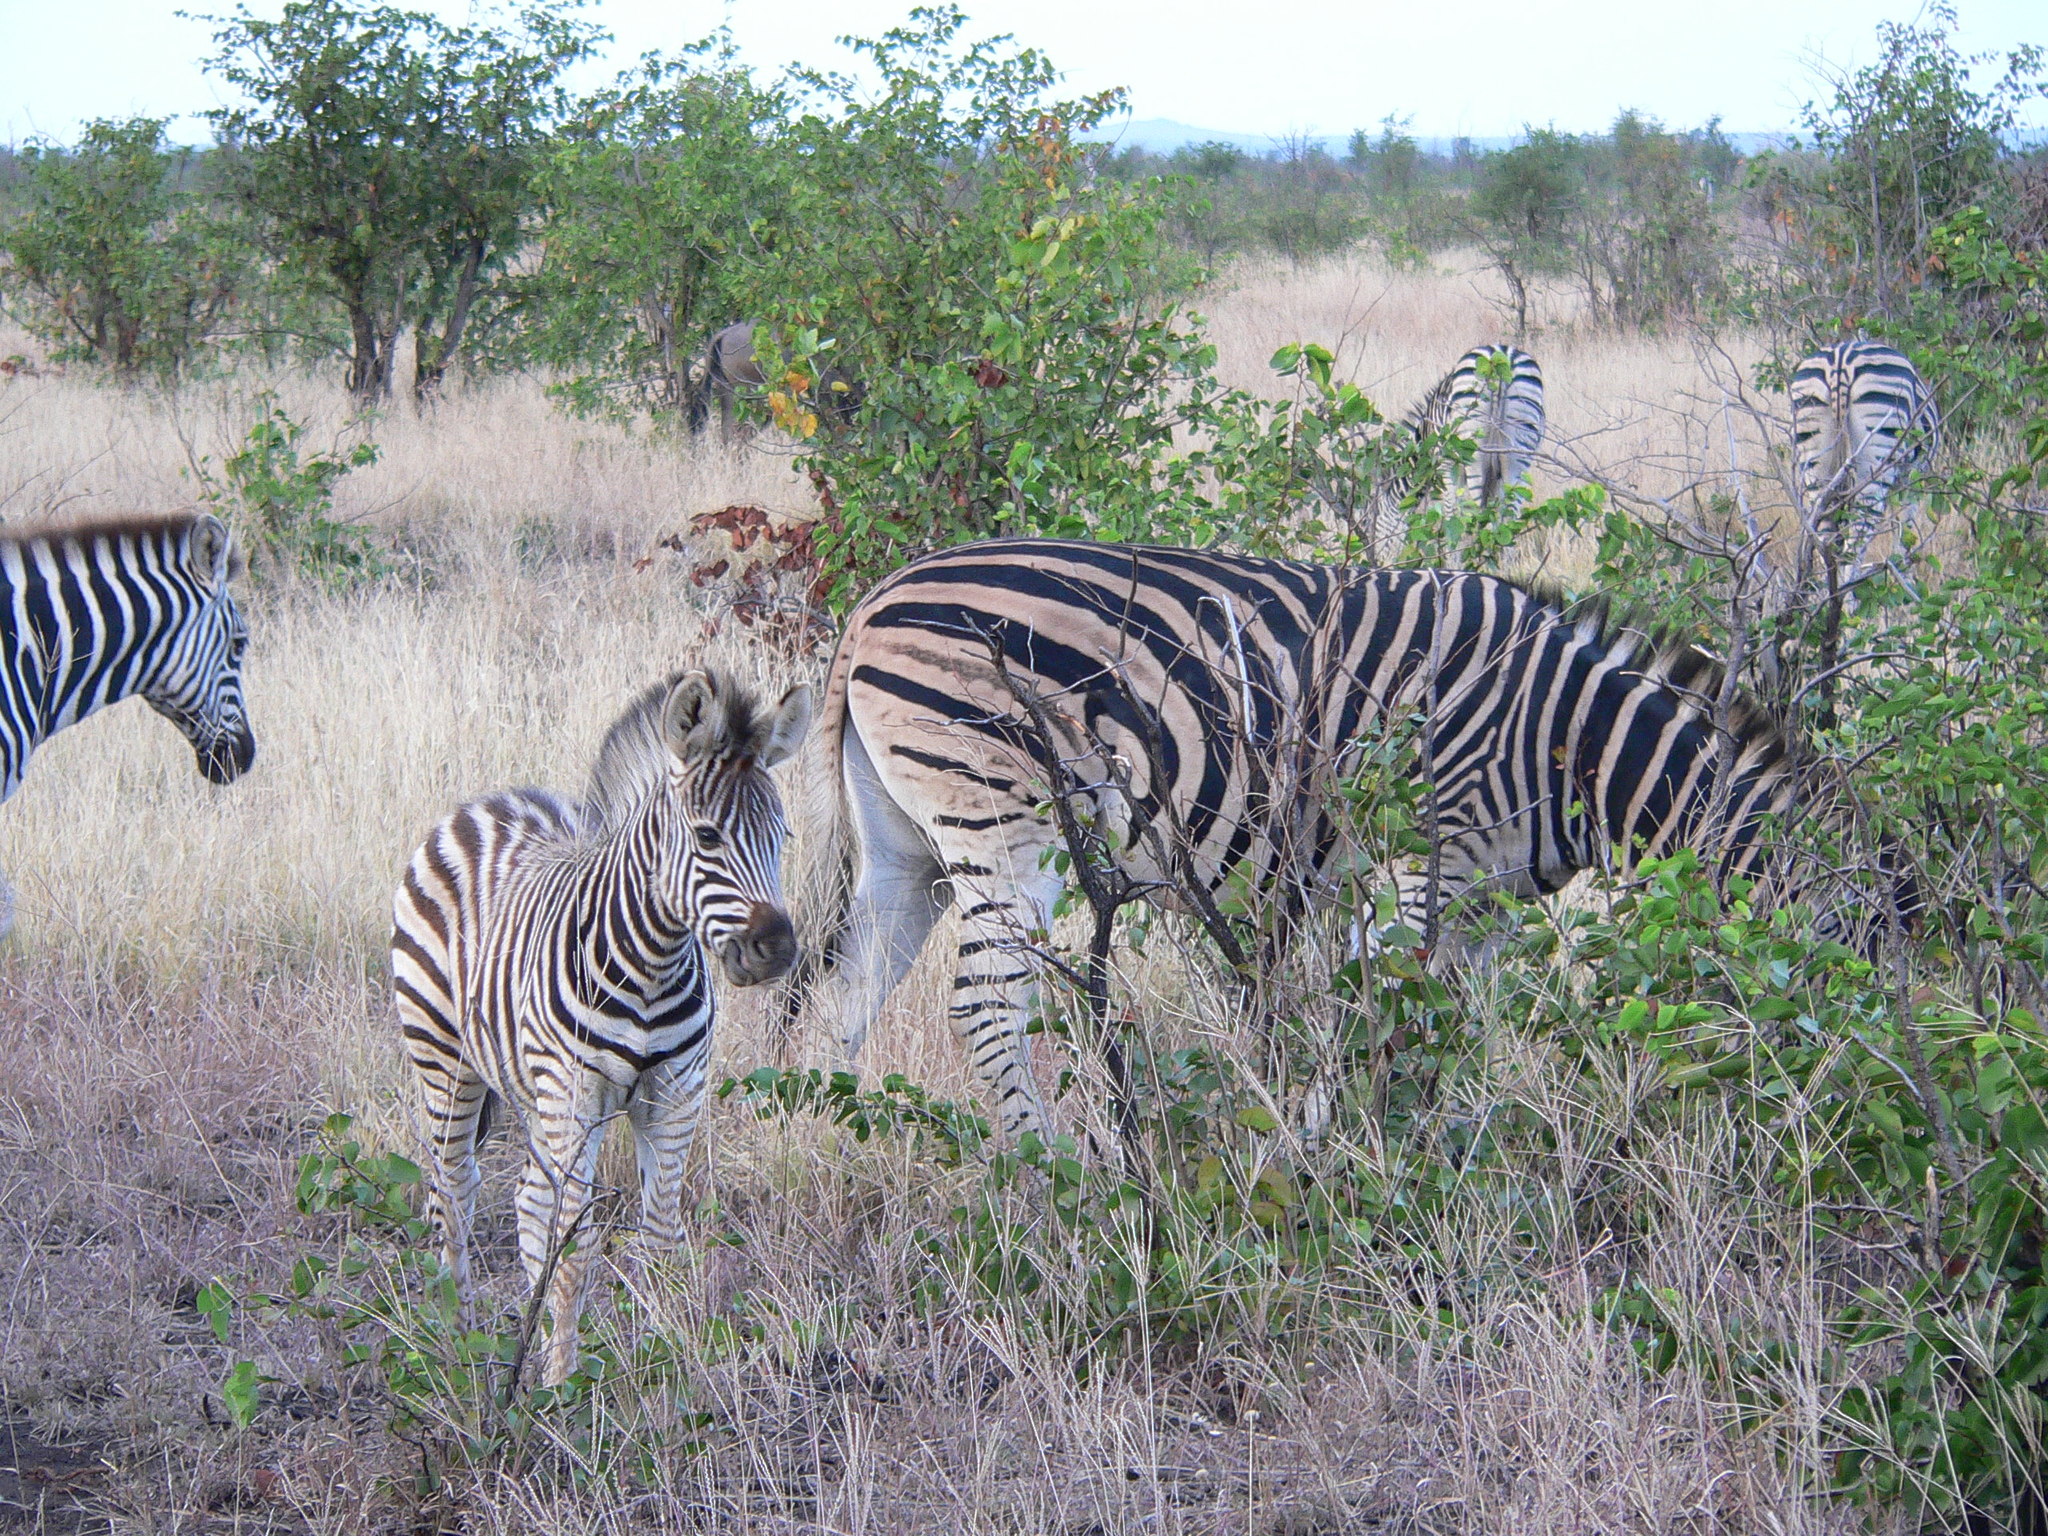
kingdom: Animalia
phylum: Chordata
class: Mammalia
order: Perissodactyla
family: Equidae
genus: Equus
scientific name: Equus quagga
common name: Plains zebra
